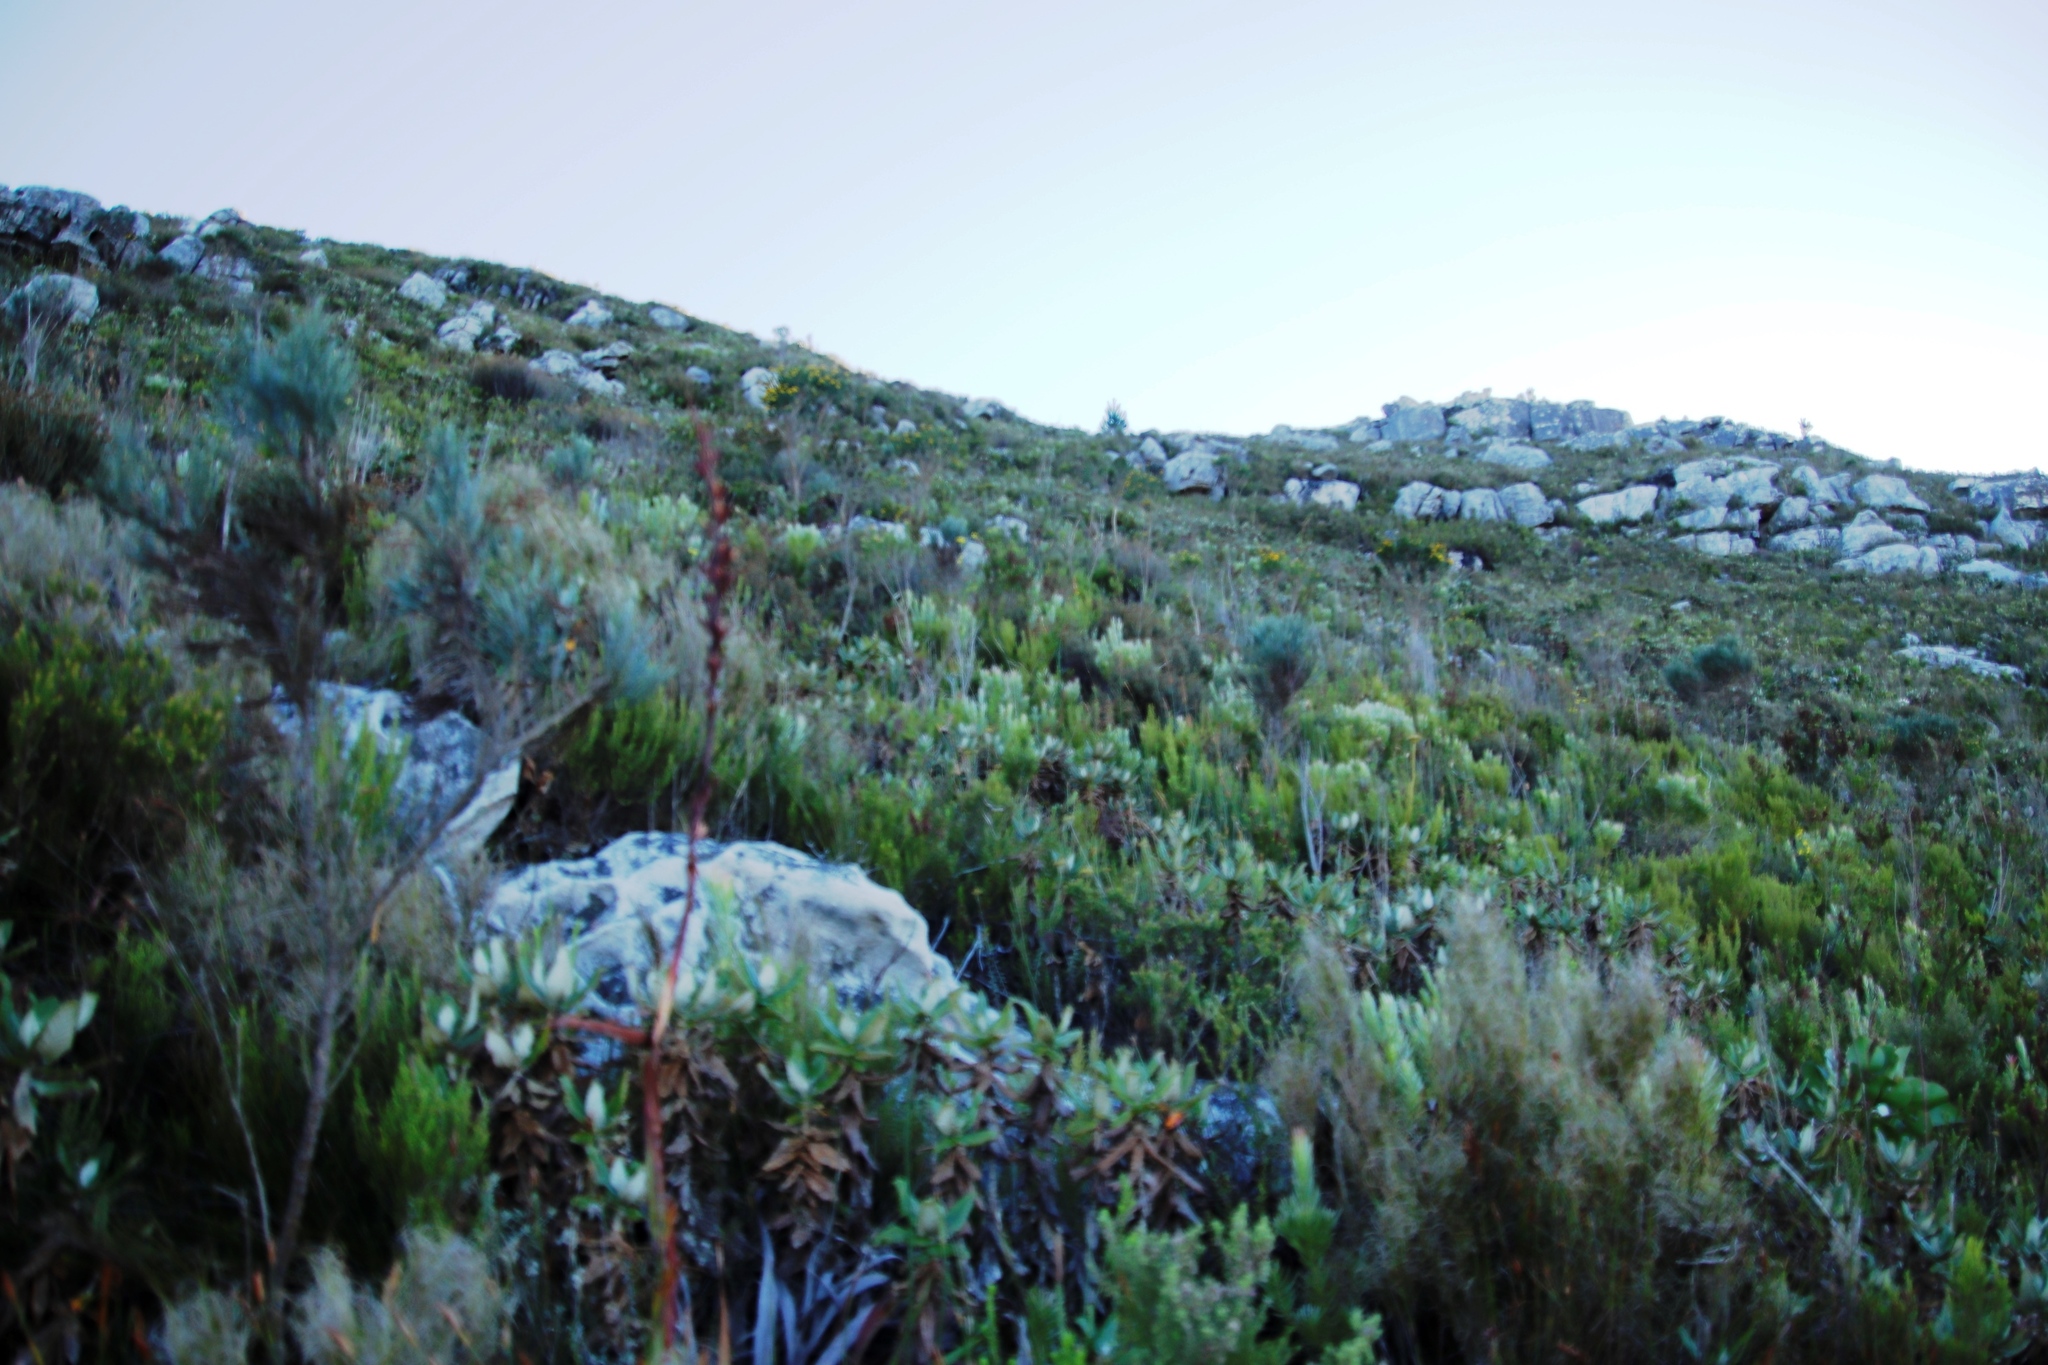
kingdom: Plantae
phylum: Tracheophyta
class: Magnoliopsida
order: Apiales
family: Apiaceae
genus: Hermas
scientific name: Hermas villosa
